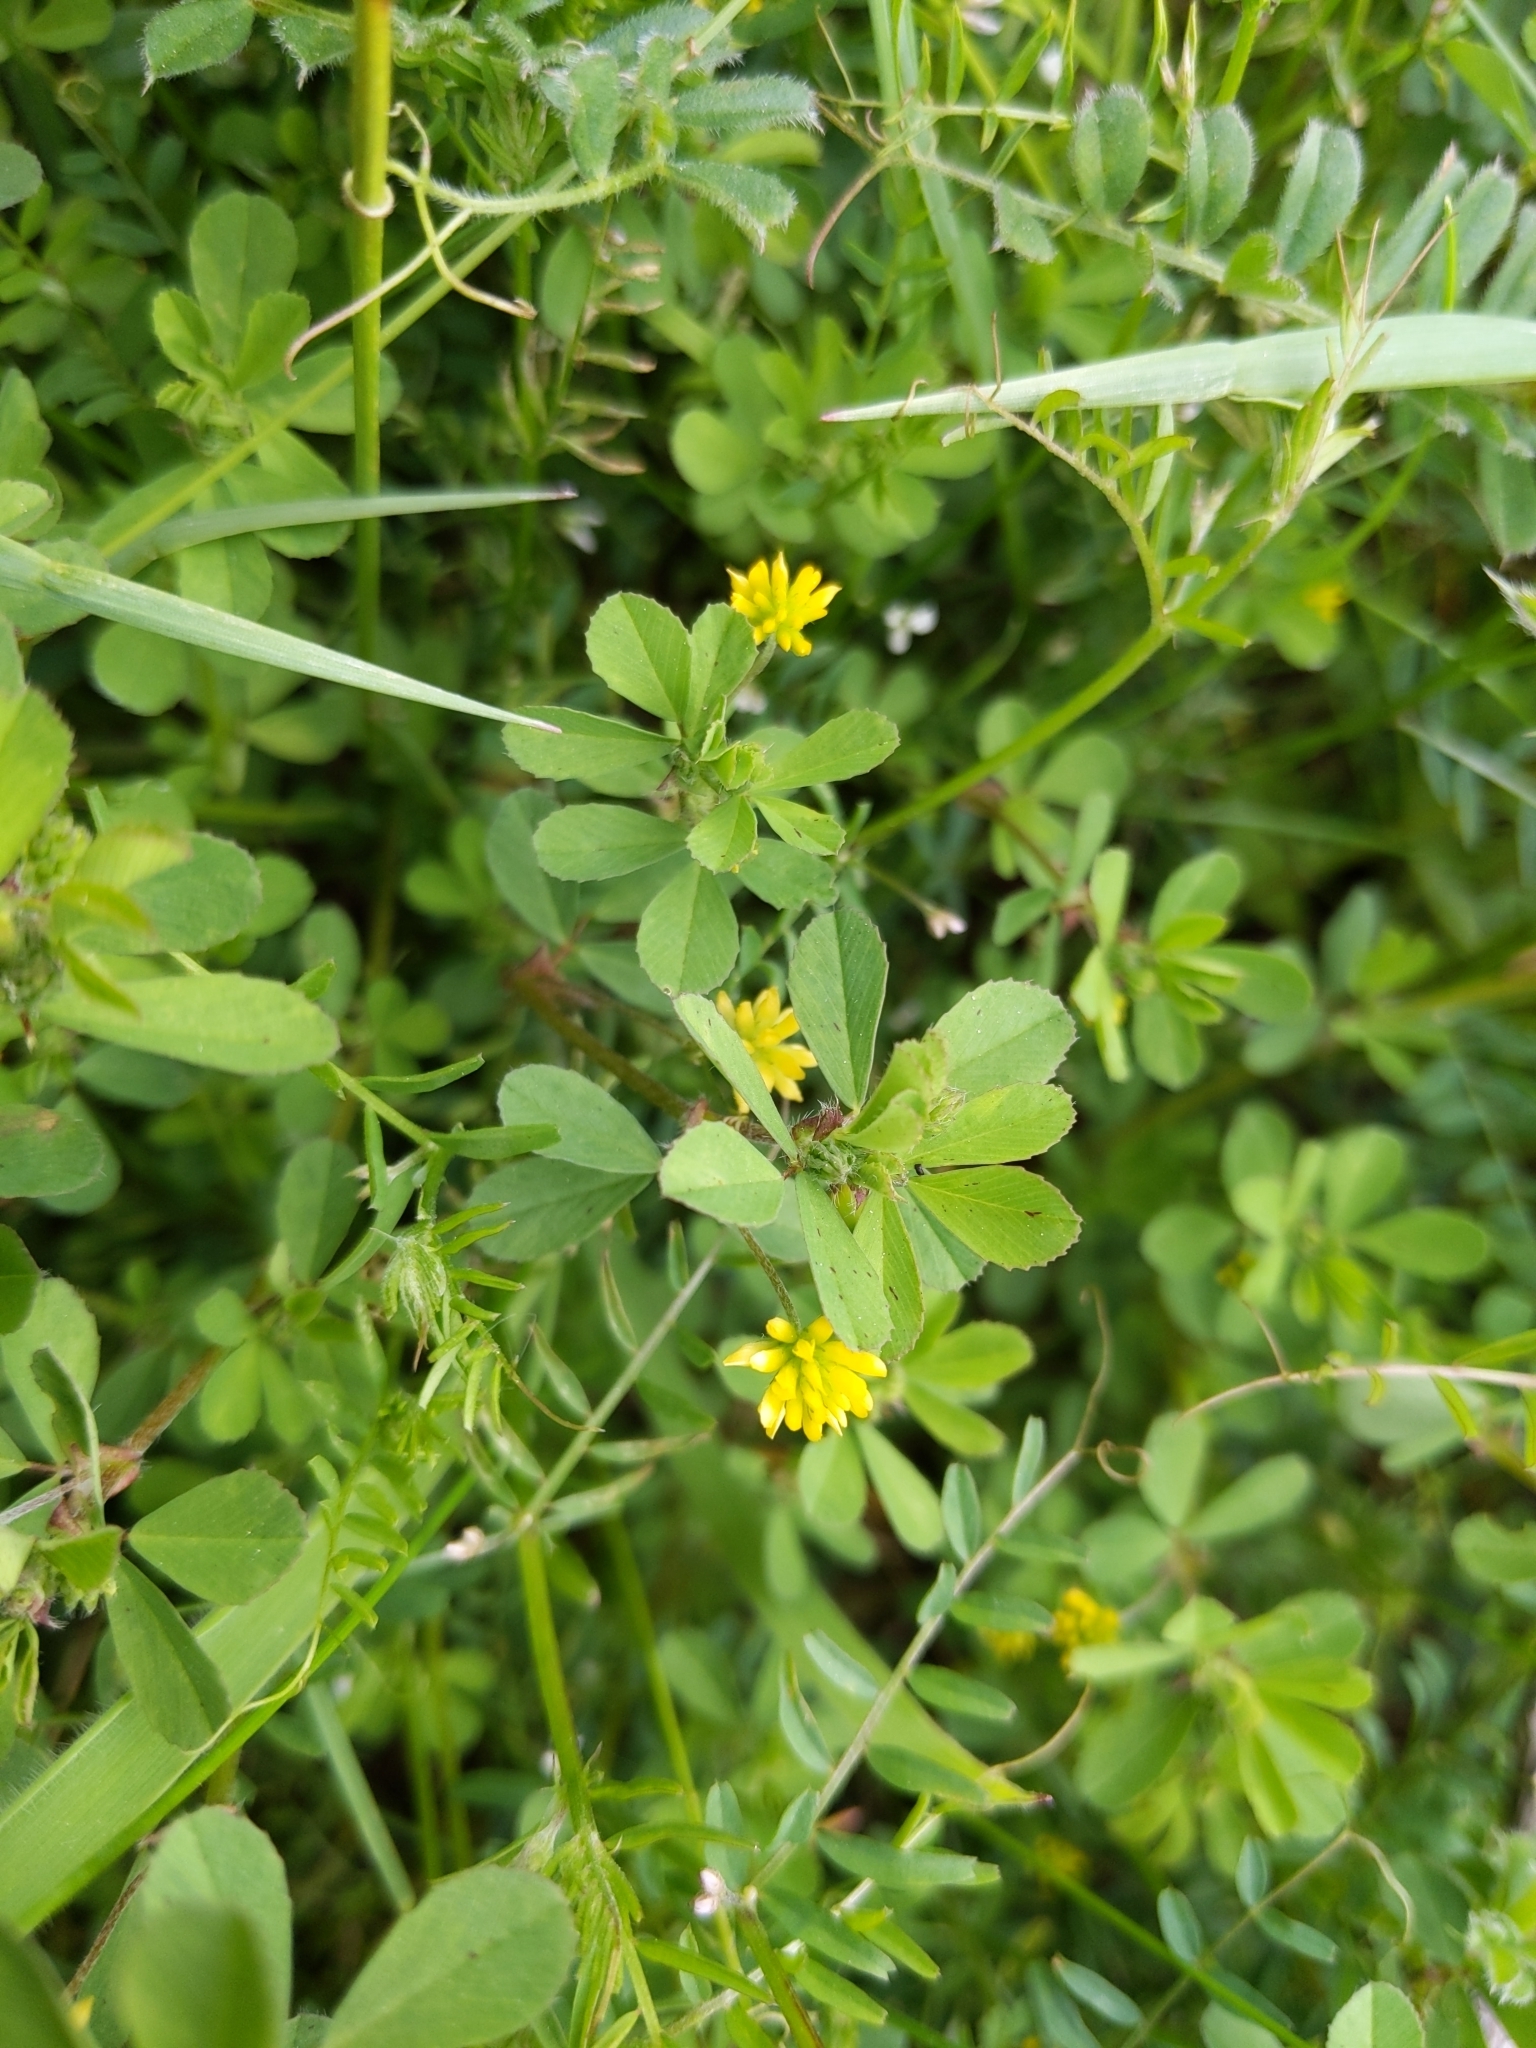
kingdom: Plantae
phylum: Tracheophyta
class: Magnoliopsida
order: Fabales
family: Fabaceae
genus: Trifolium
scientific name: Trifolium dubium
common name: Suckling clover
